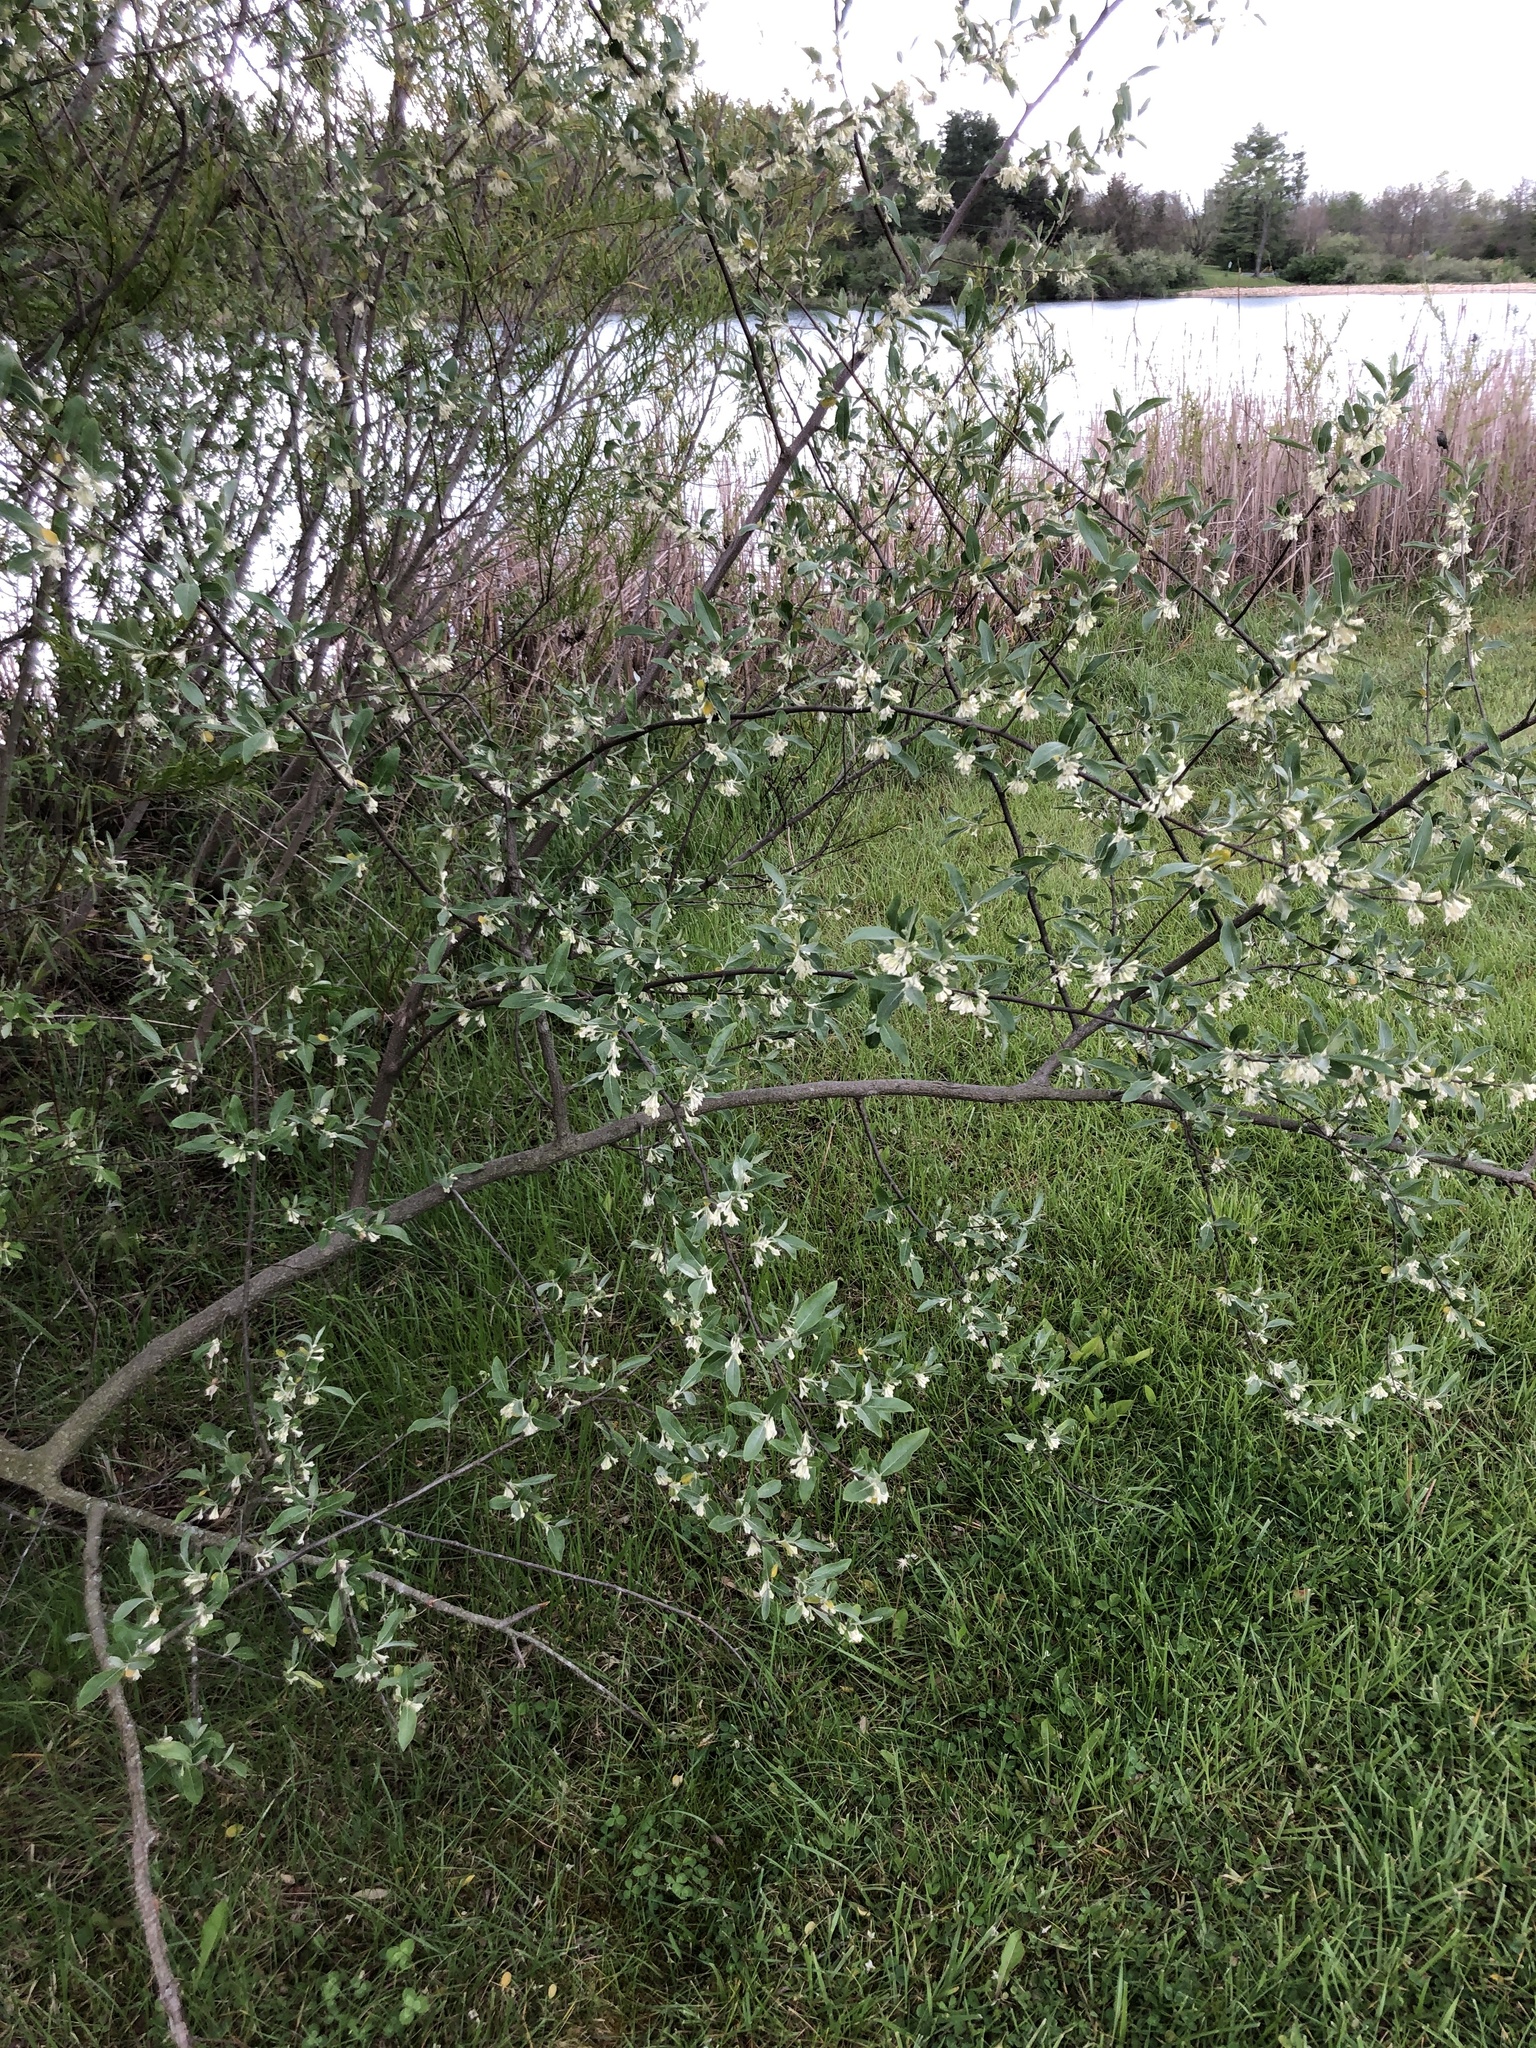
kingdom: Plantae
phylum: Tracheophyta
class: Magnoliopsida
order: Rosales
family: Elaeagnaceae
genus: Elaeagnus
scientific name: Elaeagnus umbellata
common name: Autumn olive
